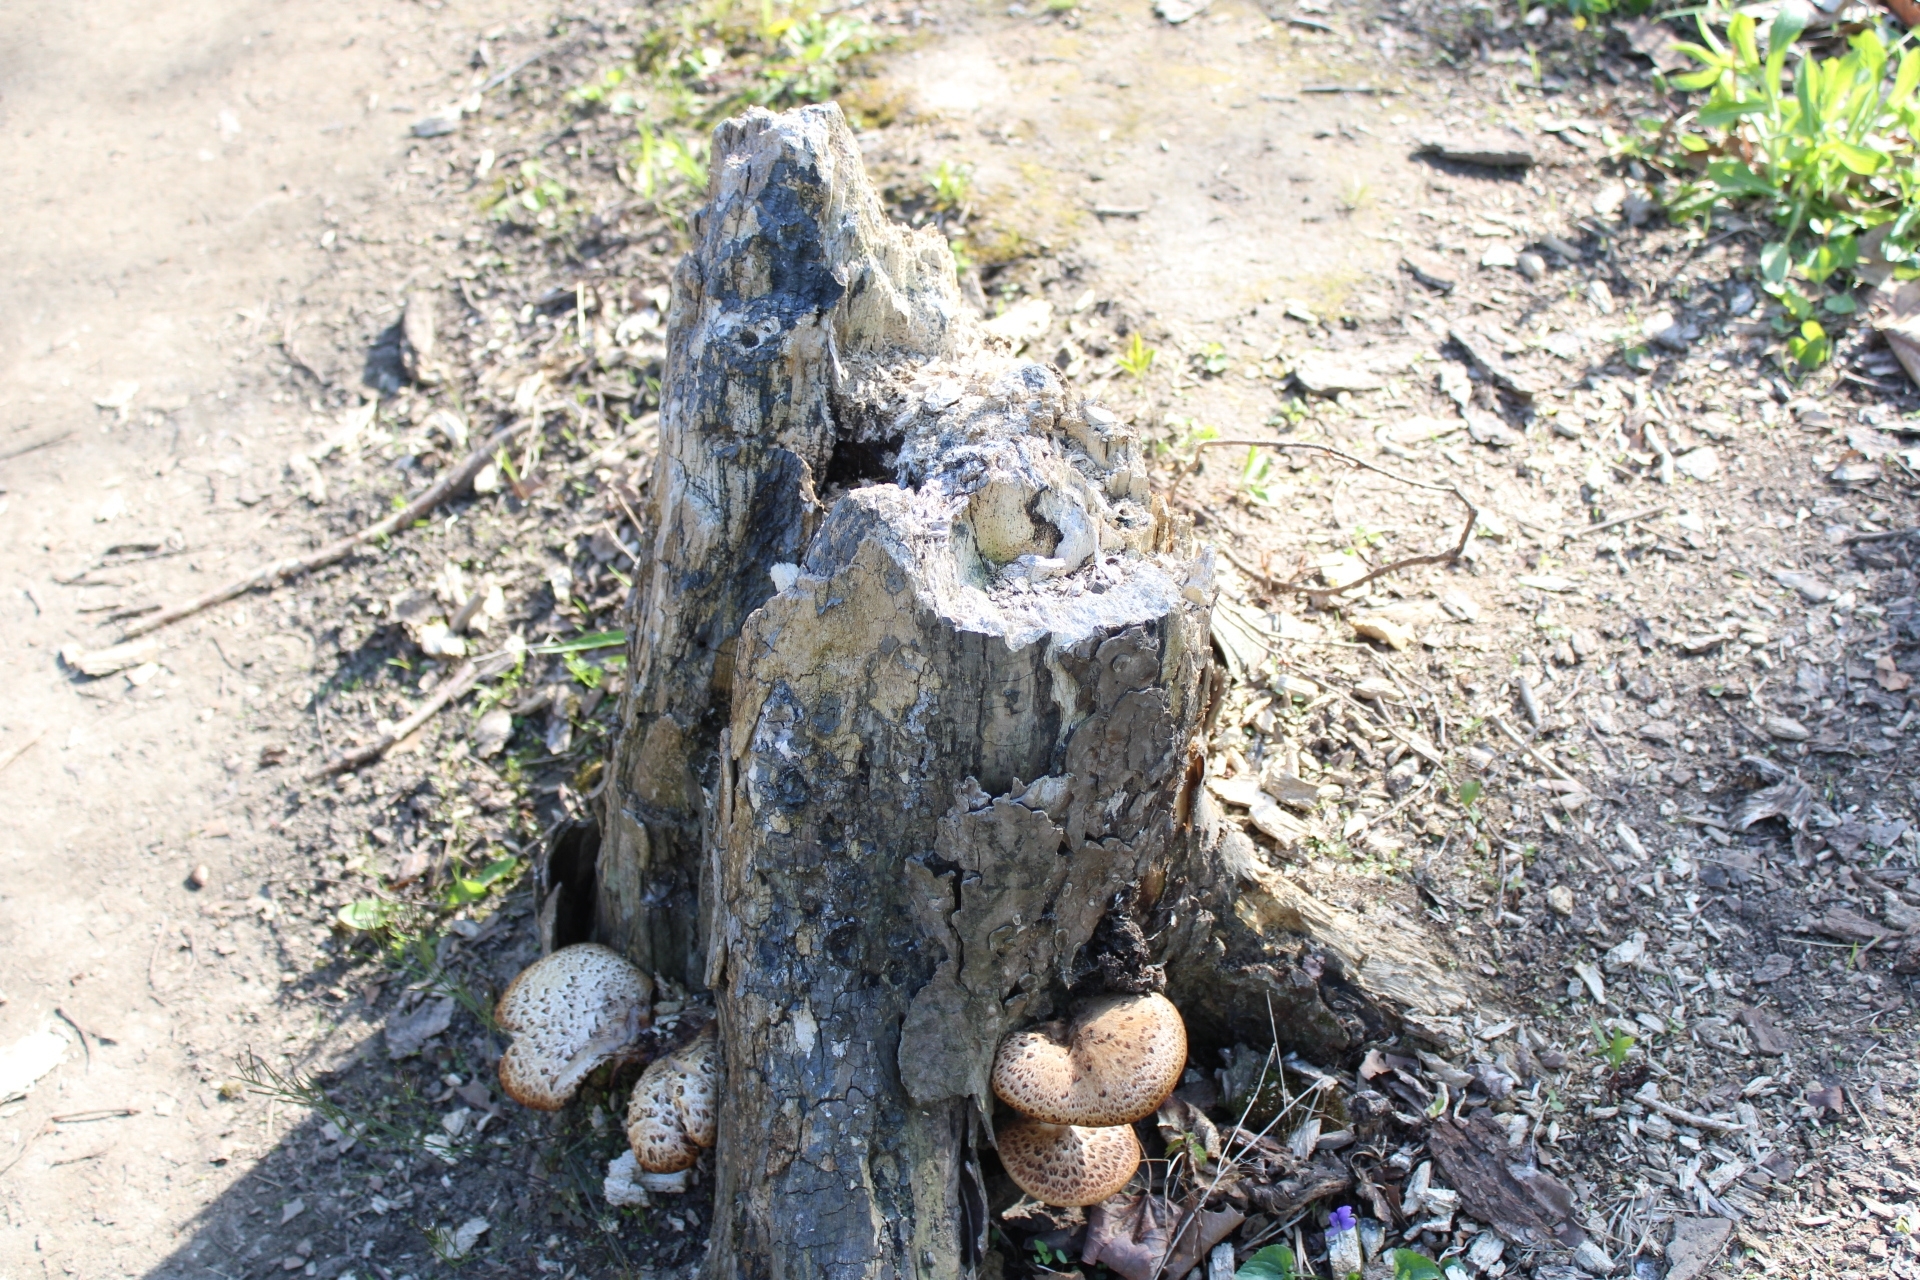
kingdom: Fungi
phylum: Basidiomycota
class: Agaricomycetes
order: Polyporales
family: Polyporaceae
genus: Cerioporus
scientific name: Cerioporus squamosus
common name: Dryad's saddle
